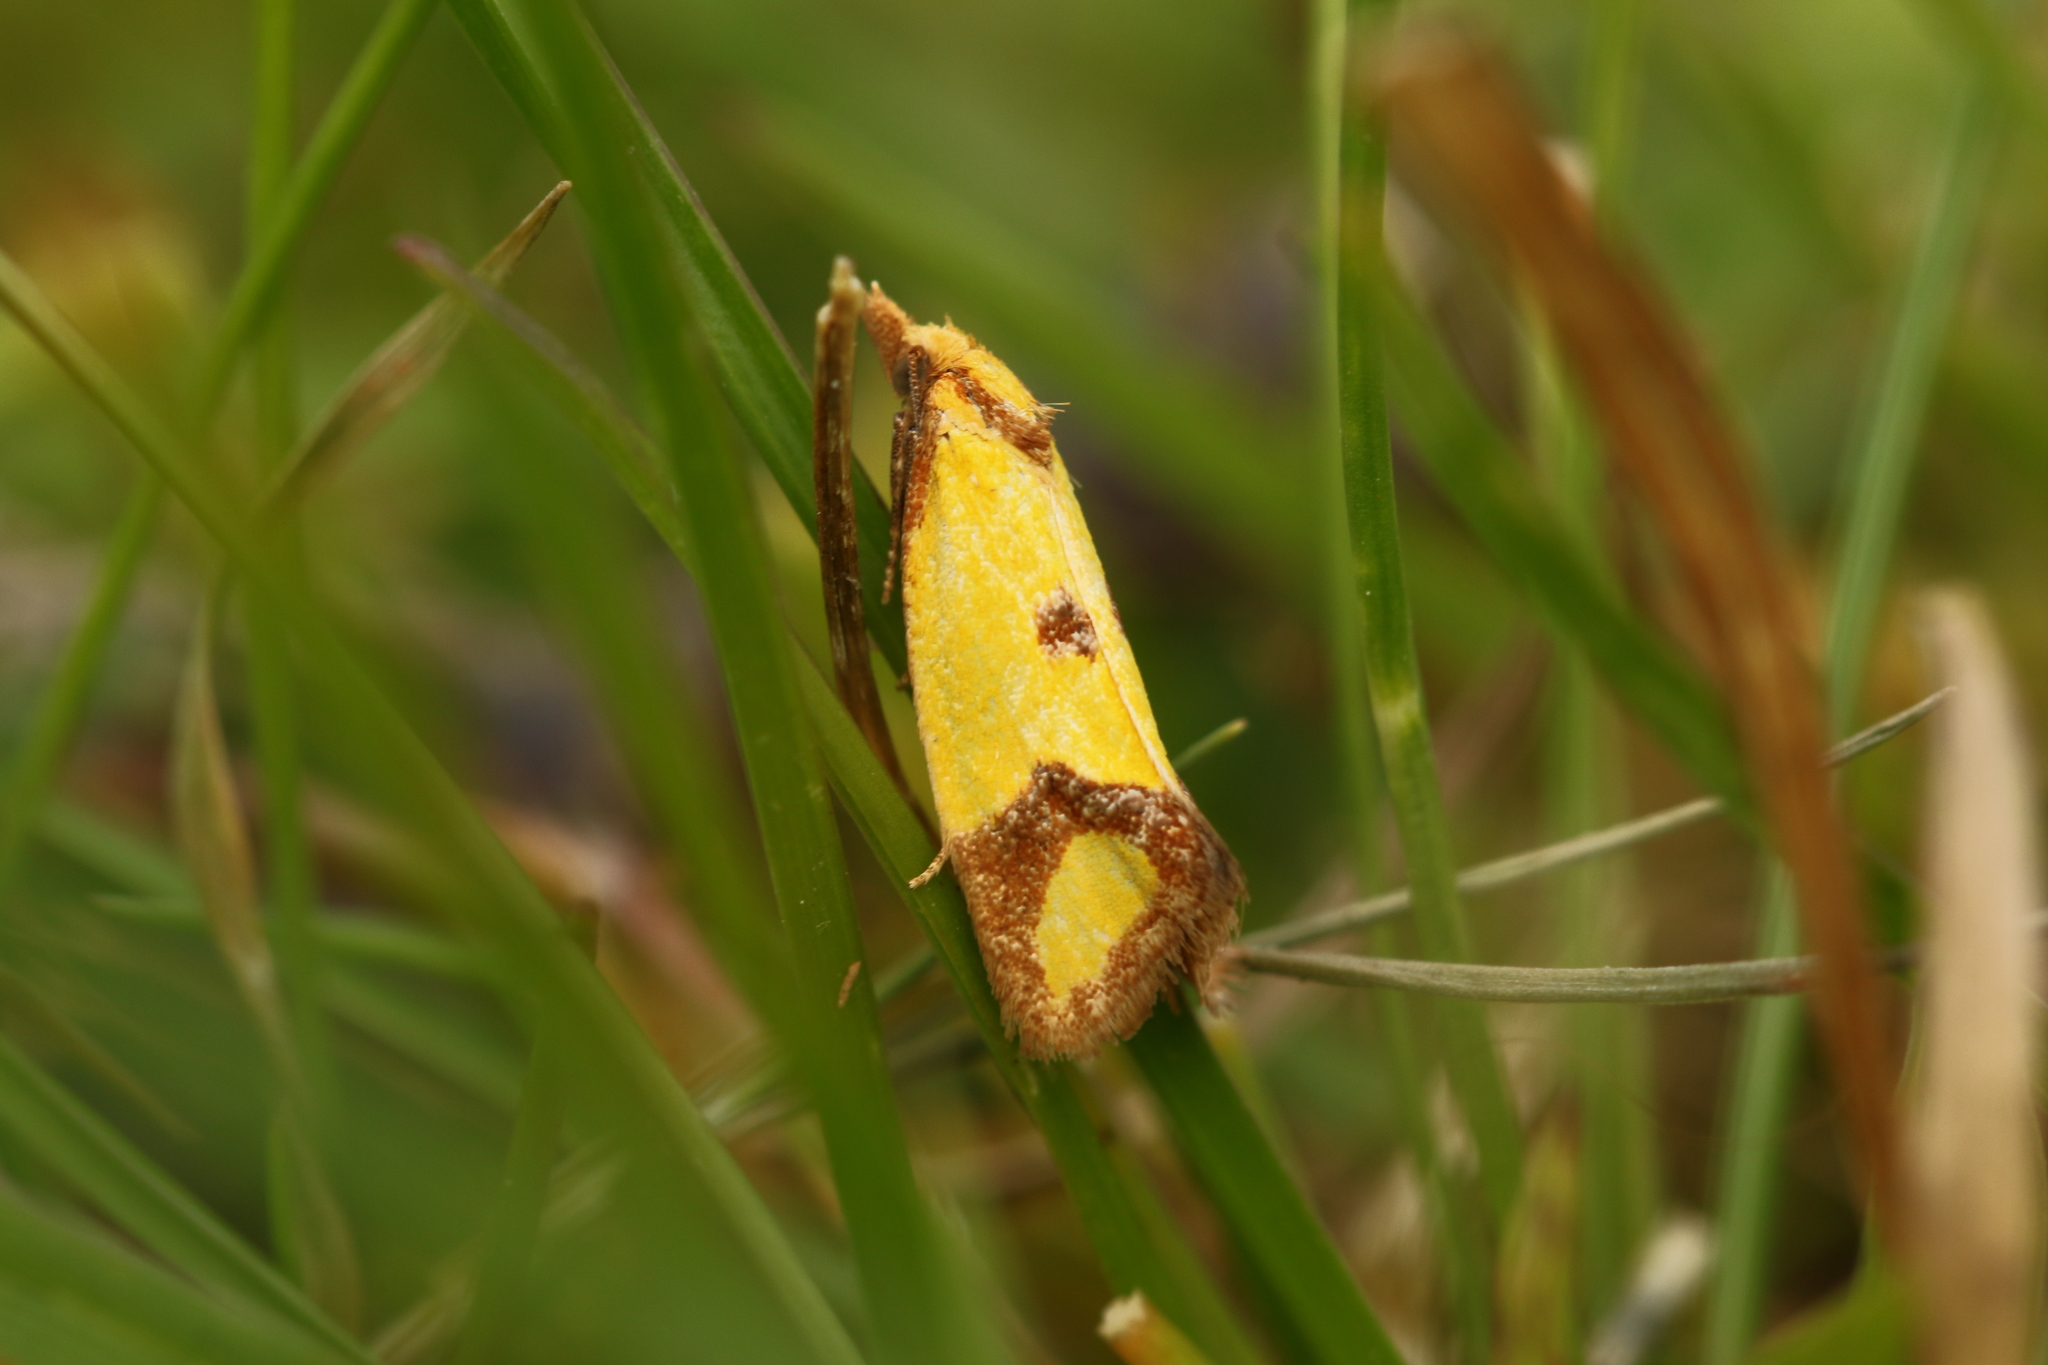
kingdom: Animalia
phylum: Arthropoda
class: Insecta
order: Lepidoptera
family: Tortricidae
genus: Agapeta
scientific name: Agapeta zoegana
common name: Sulfur knapweed root moth
